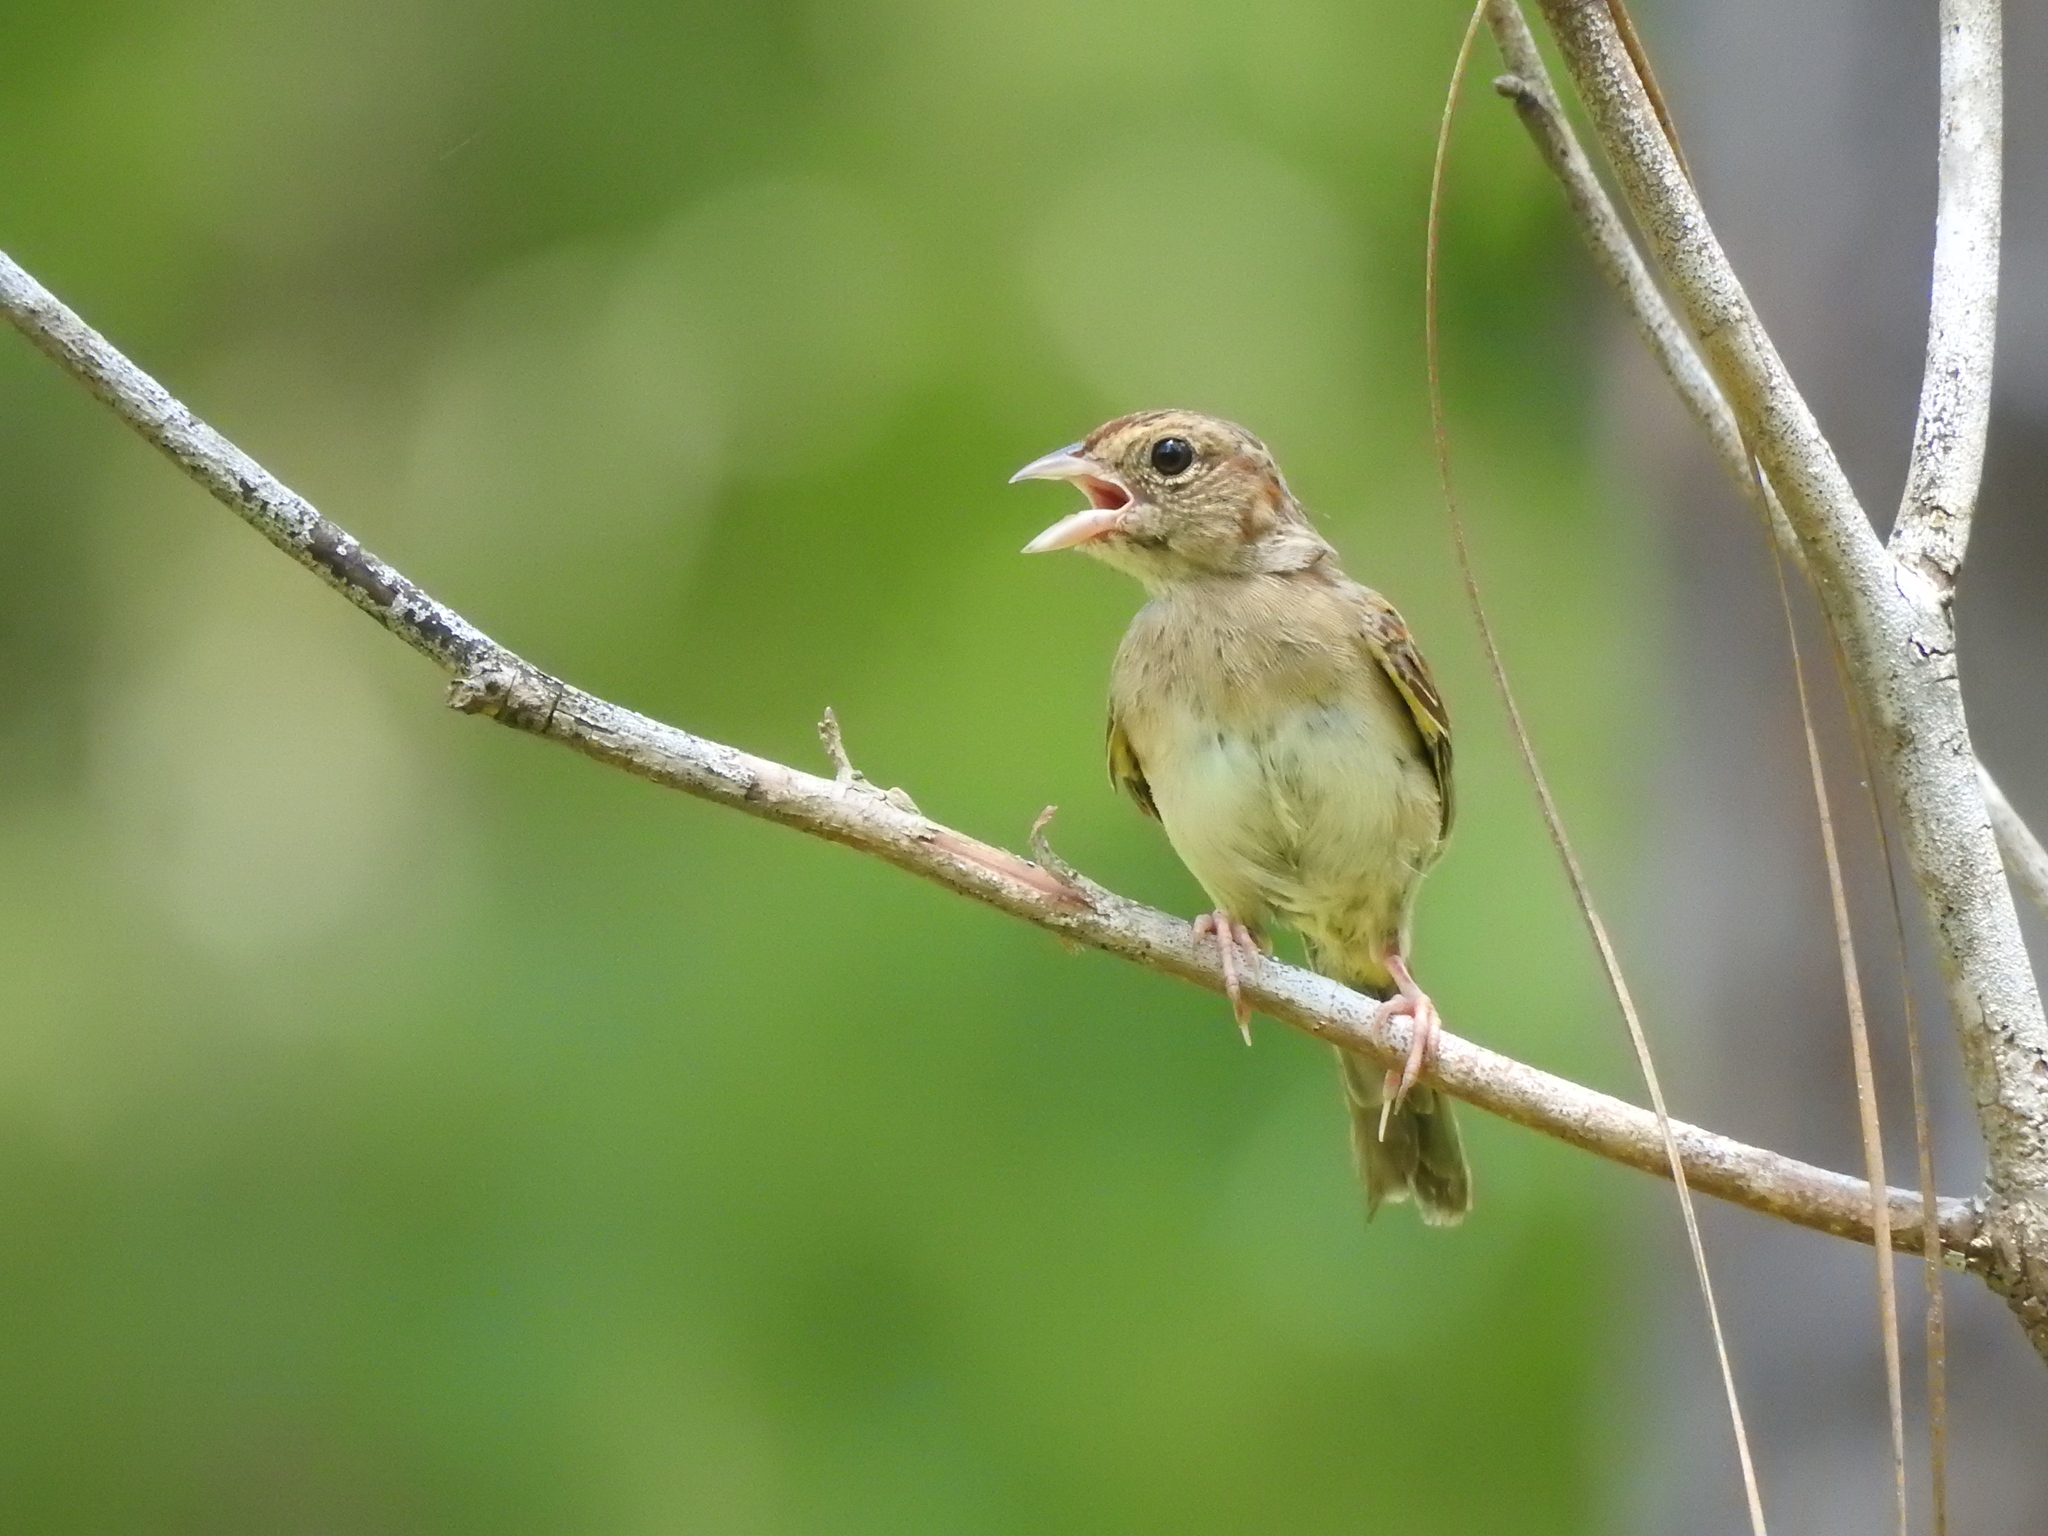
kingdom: Animalia
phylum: Chordata
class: Aves
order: Passeriformes
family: Passerellidae
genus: Peucaea
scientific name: Peucaea aestivalis
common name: Bachman's sparrow
